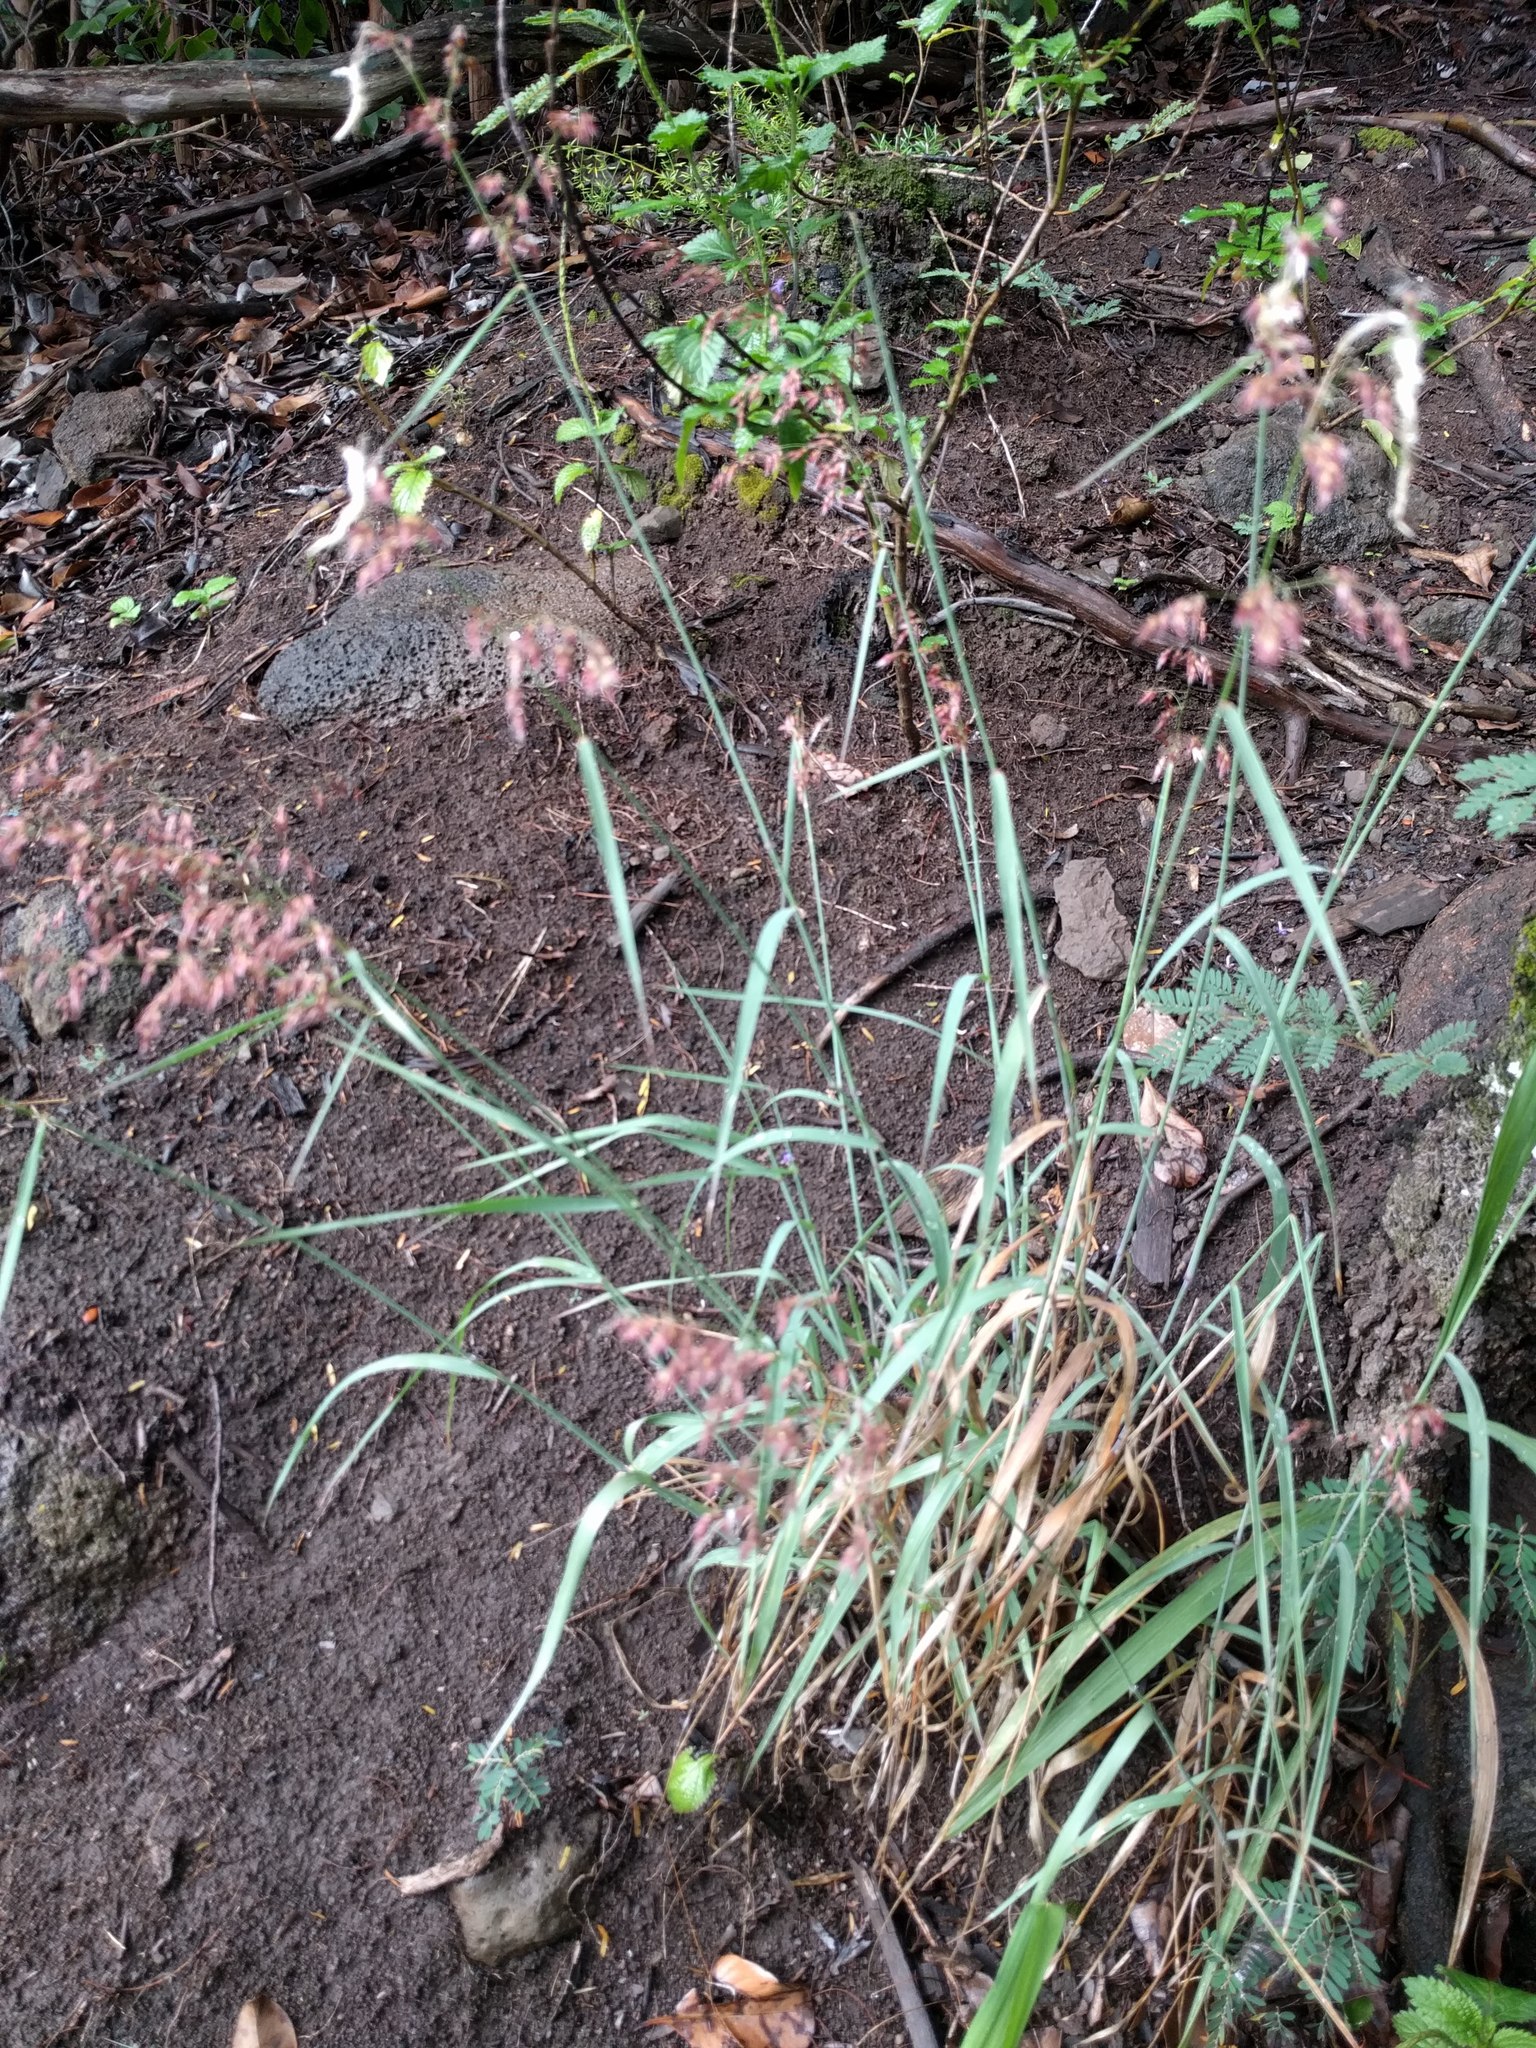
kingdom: Plantae
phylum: Tracheophyta
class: Liliopsida
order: Poales
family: Poaceae
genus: Melinis
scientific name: Melinis repens
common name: Rose natal grass
